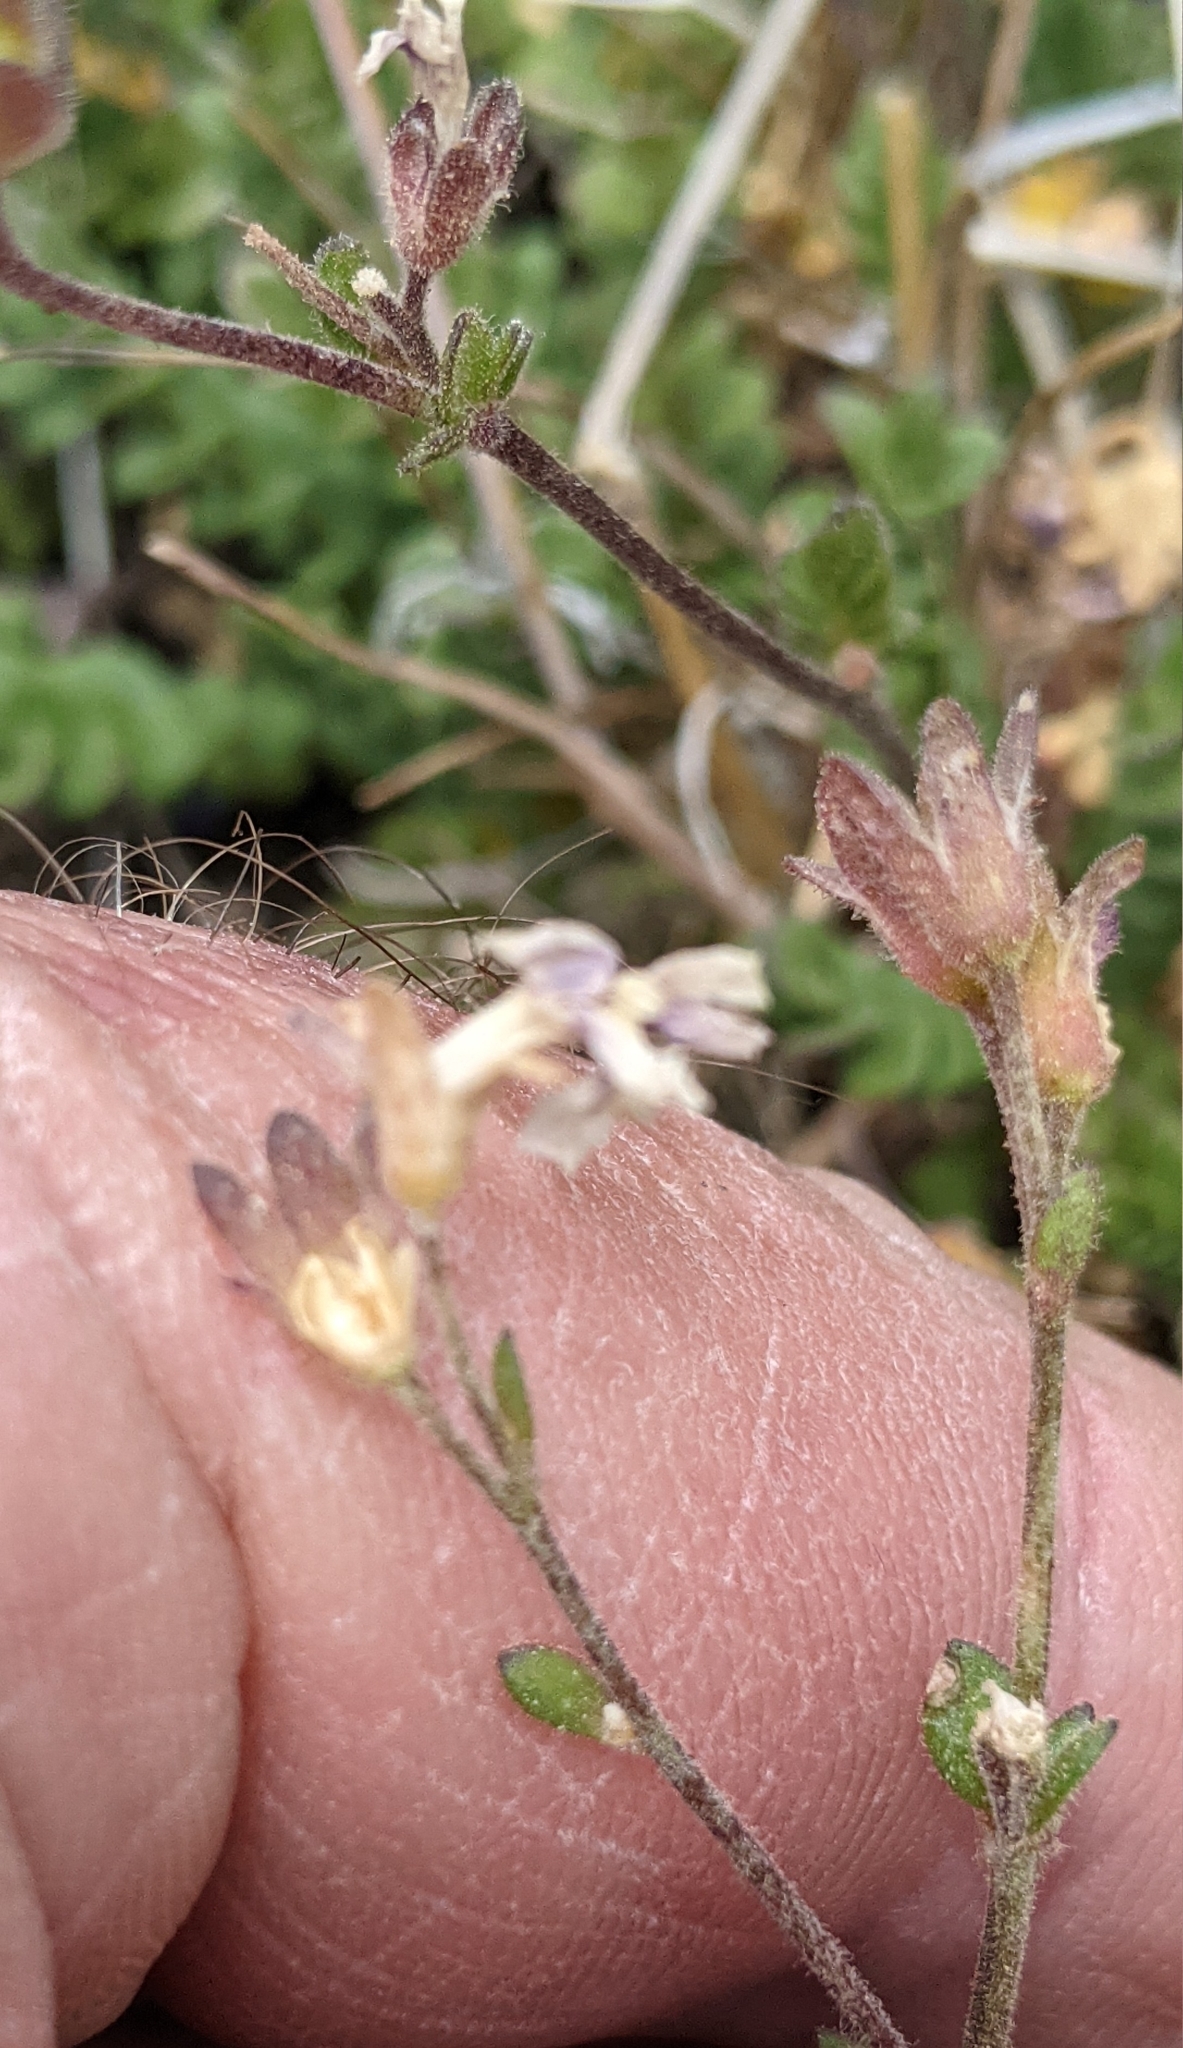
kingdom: Plantae
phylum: Tracheophyta
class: Magnoliopsida
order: Ericales
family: Polemoniaceae
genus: Polemonium
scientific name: Polemonium pulcherrimum
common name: Short jacob's-ladder
